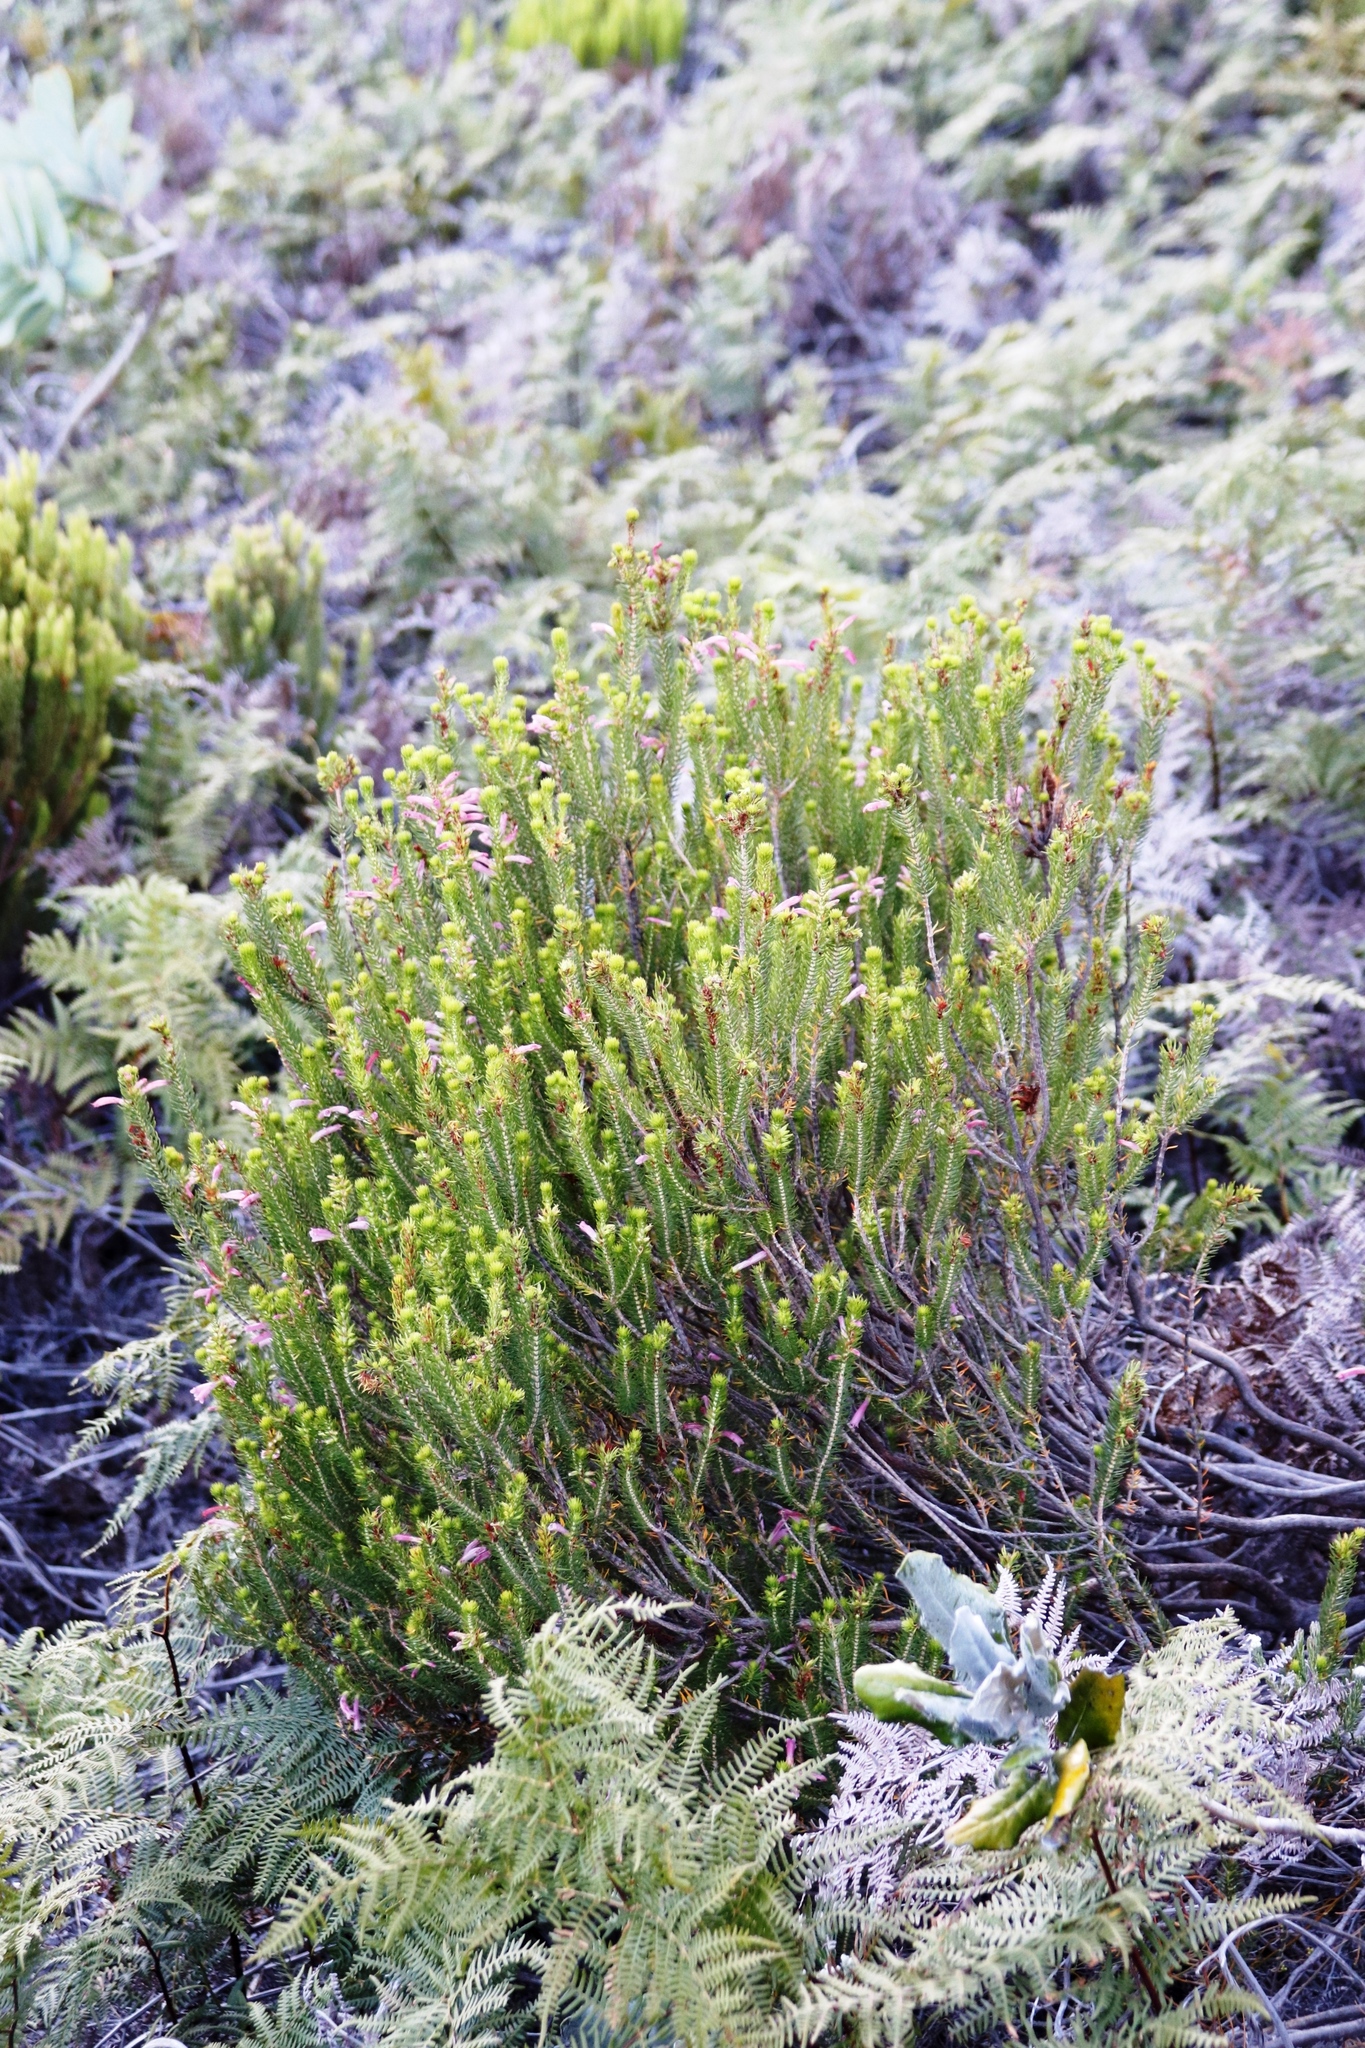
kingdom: Plantae
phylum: Tracheophyta
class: Magnoliopsida
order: Ericales
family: Ericaceae
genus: Erica
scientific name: Erica abietina
